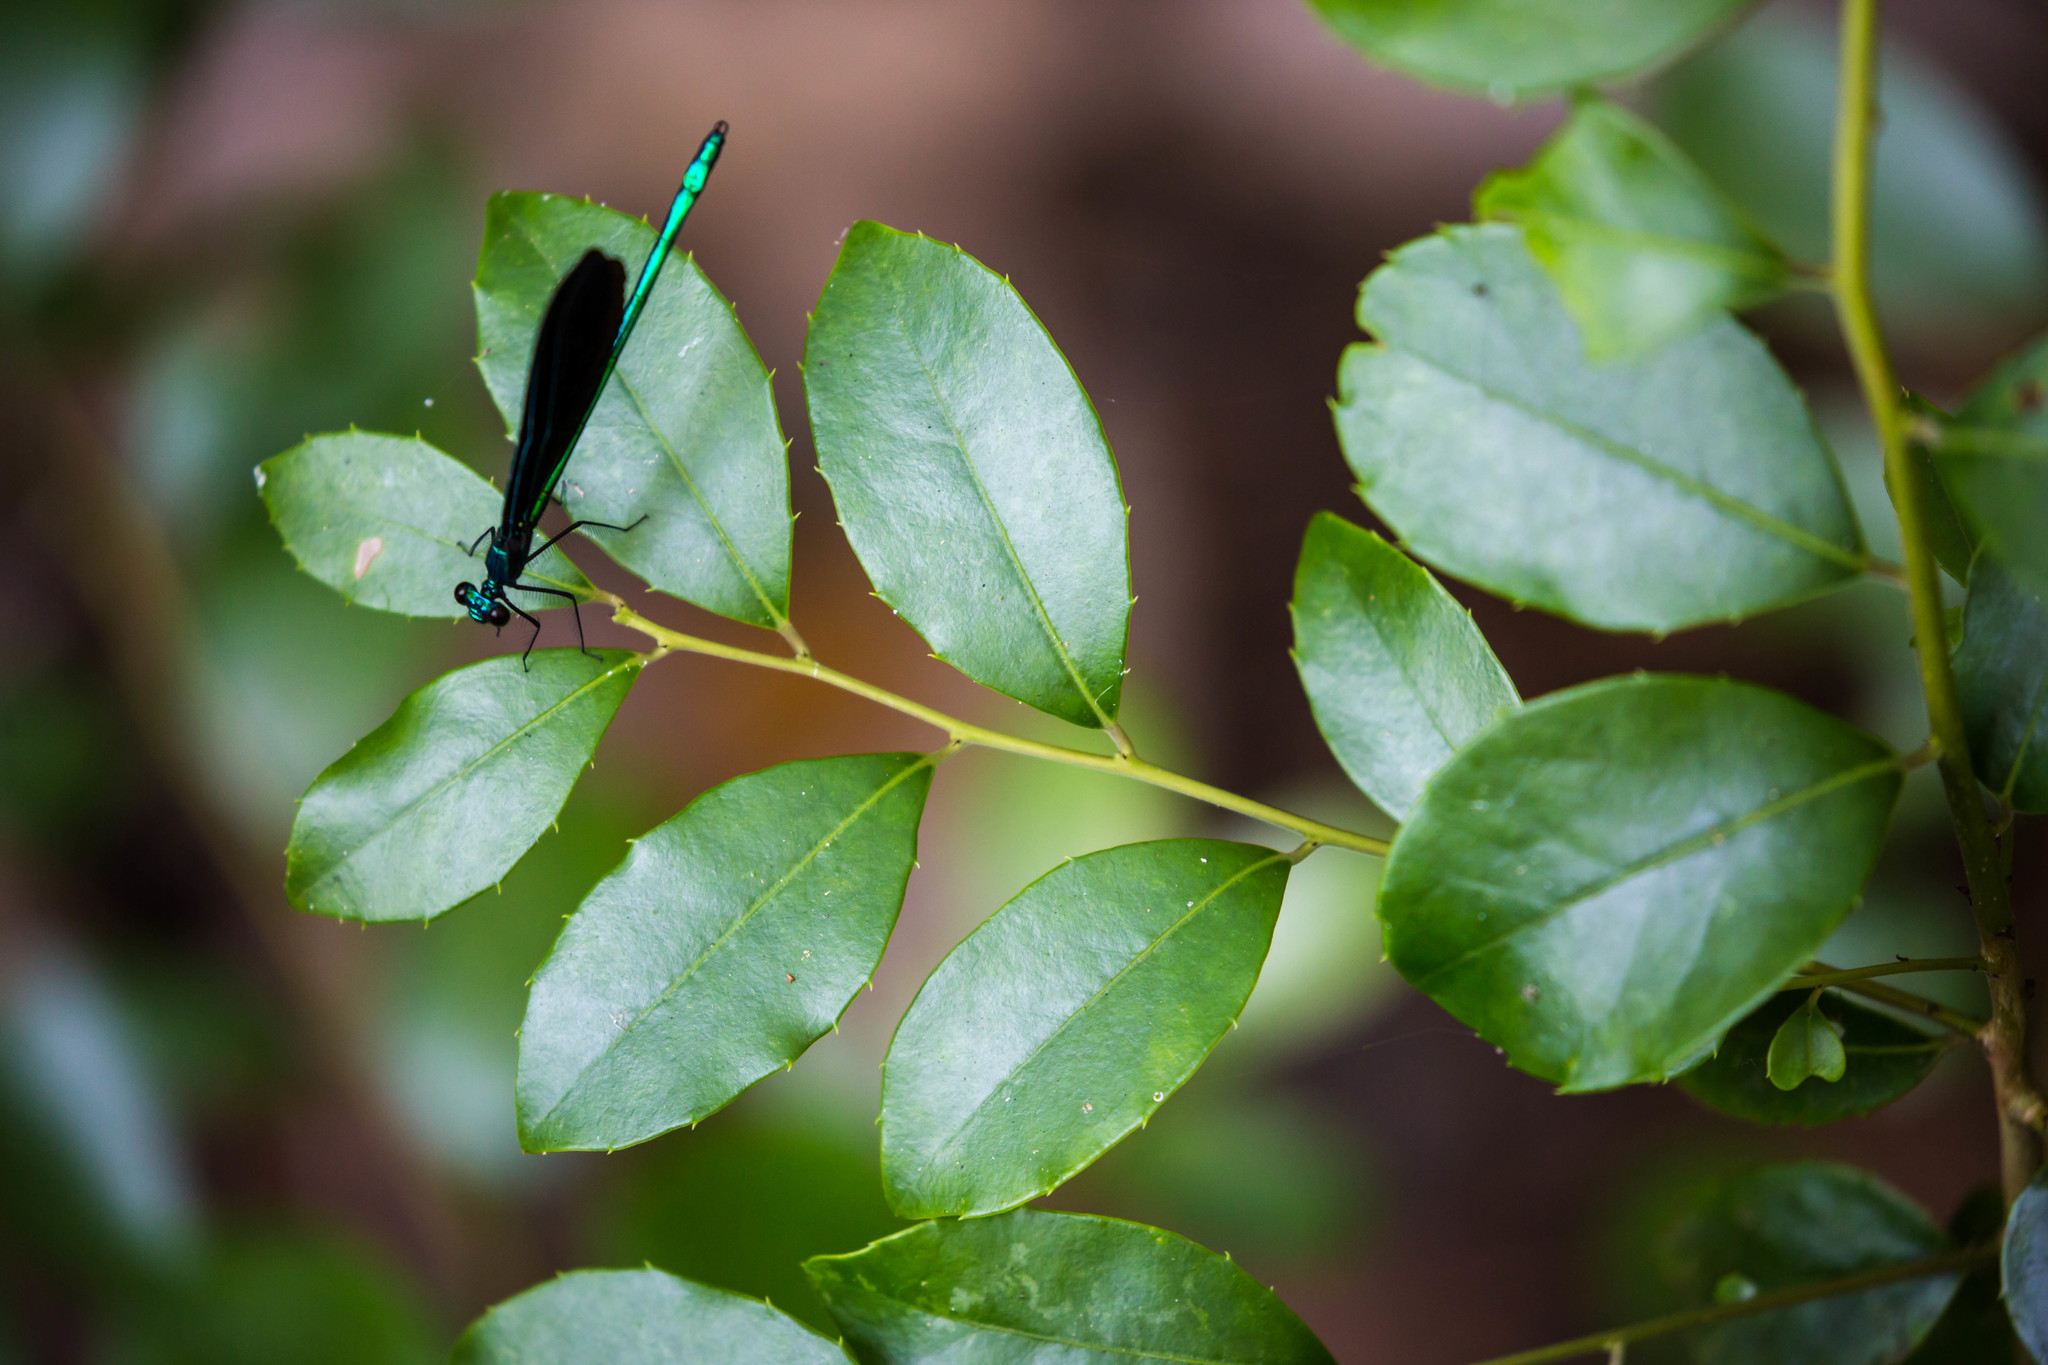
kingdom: Animalia
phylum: Arthropoda
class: Insecta
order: Odonata
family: Calopterygidae
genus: Calopteryx
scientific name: Calopteryx maculata
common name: Ebony jewelwing
